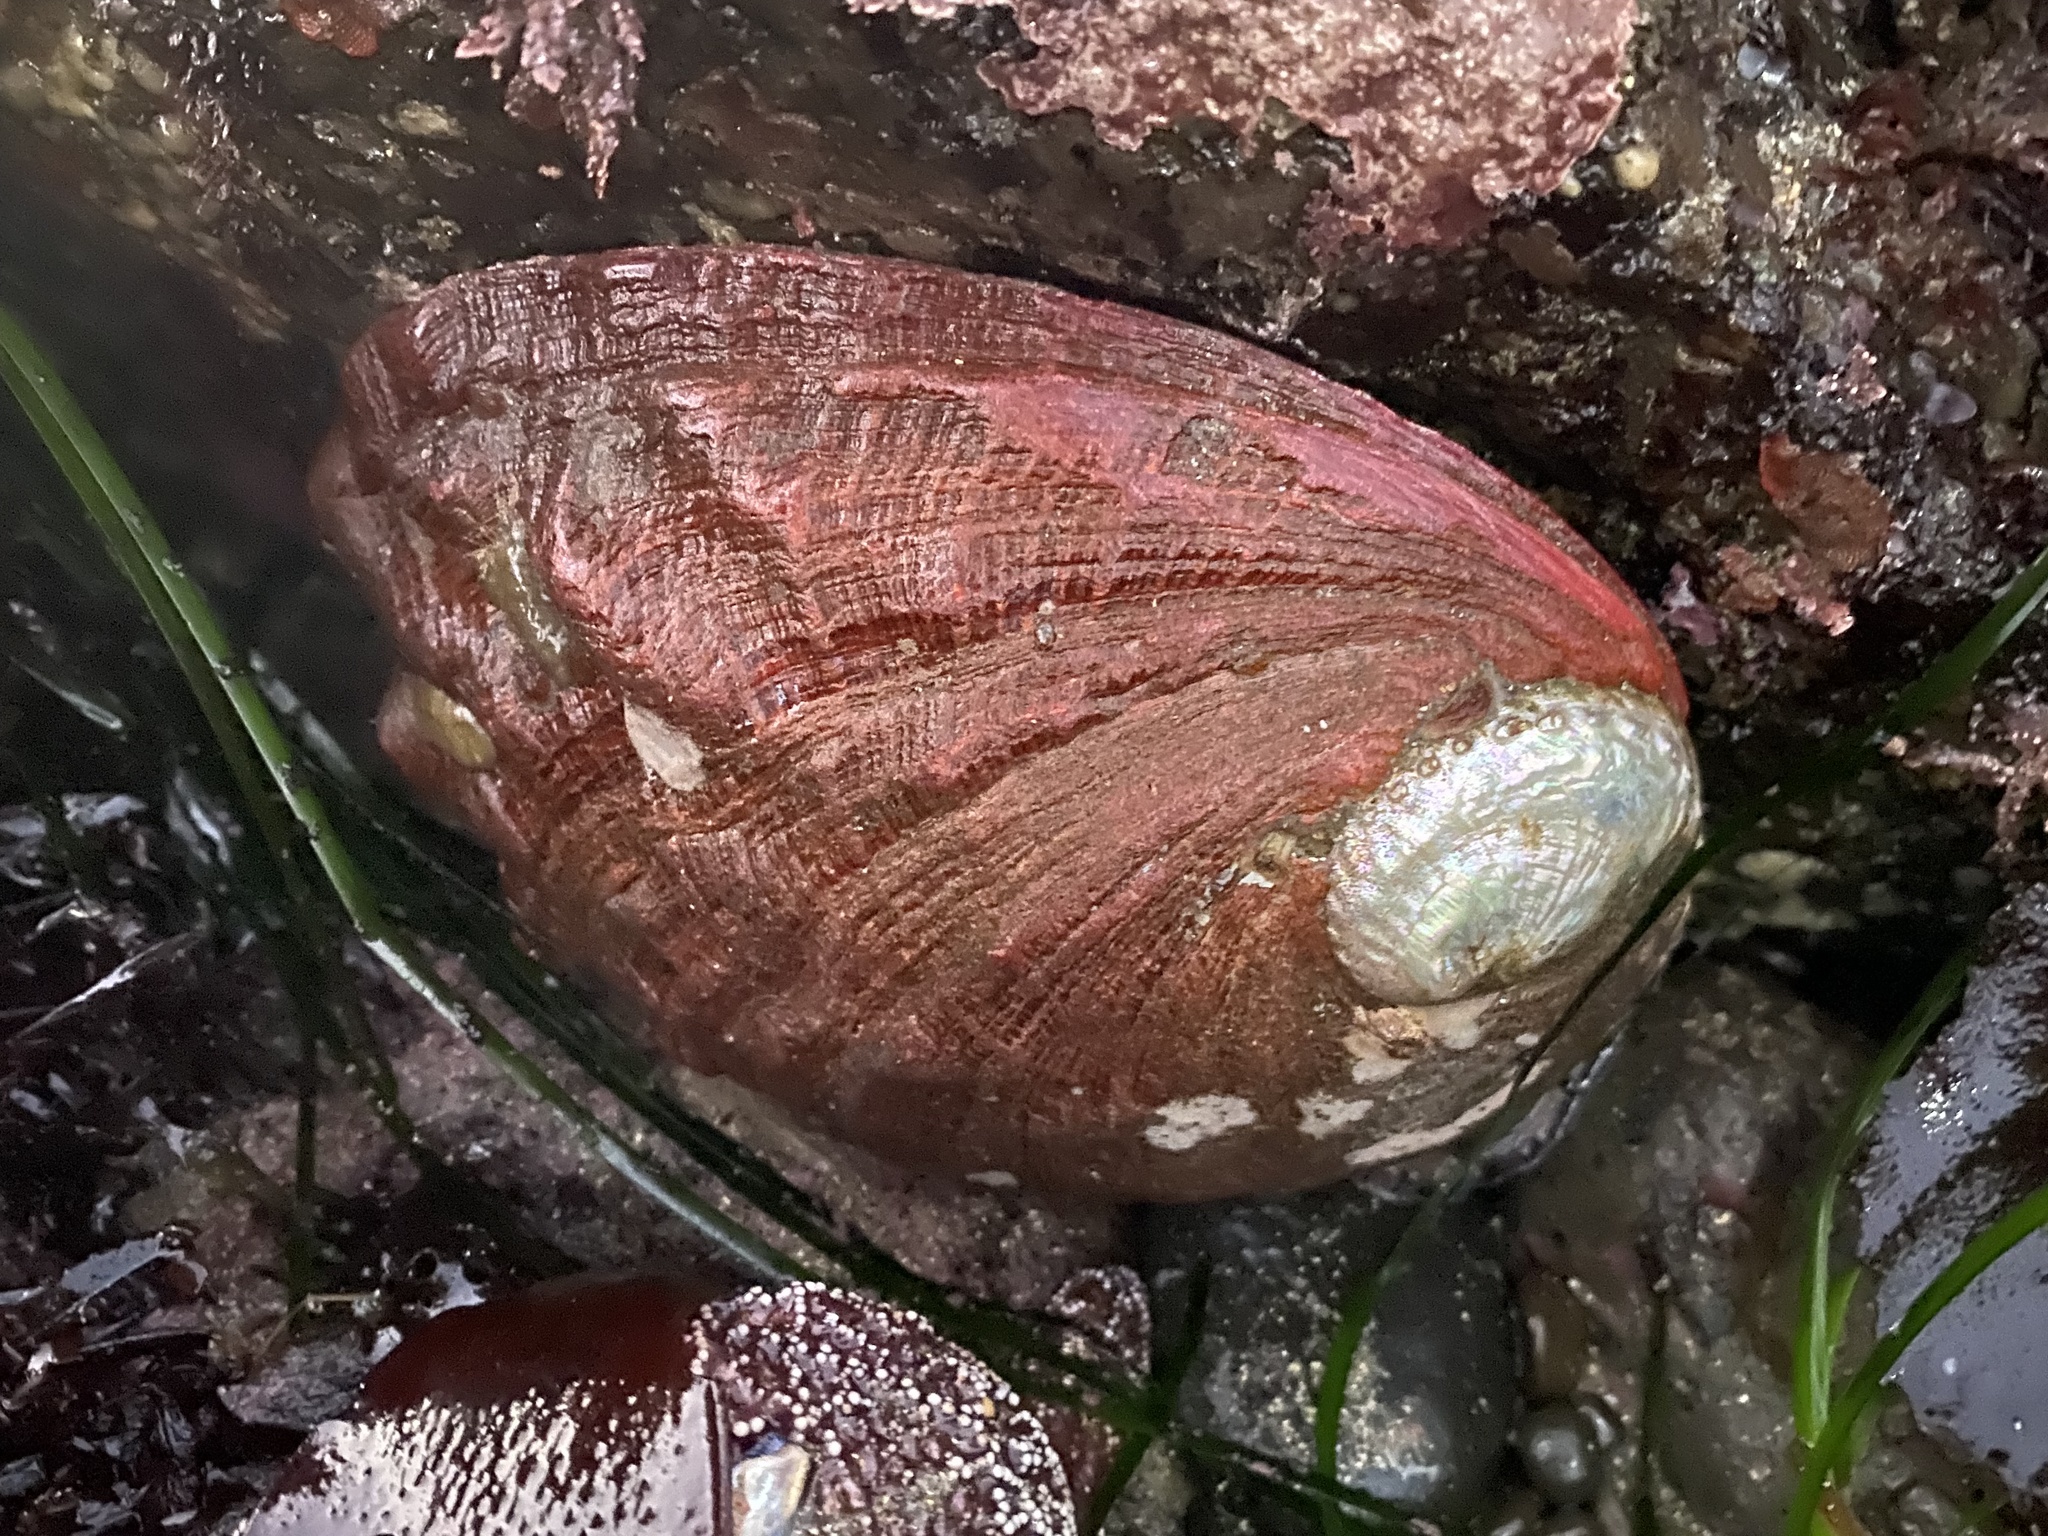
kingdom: Animalia
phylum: Mollusca
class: Gastropoda
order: Lepetellida
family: Haliotidae
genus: Haliotis
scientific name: Haliotis rufescens
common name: Red abalone
